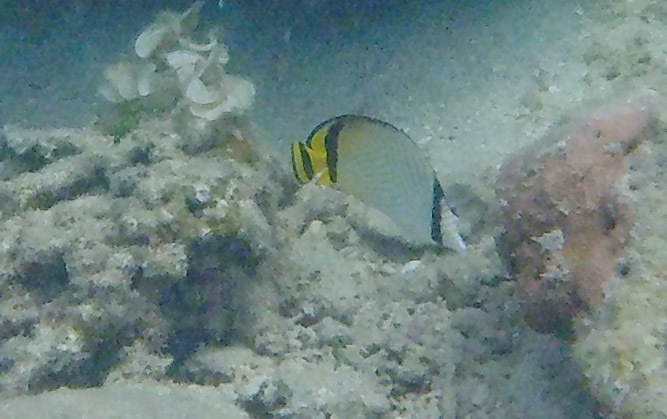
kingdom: Animalia
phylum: Chordata
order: Perciformes
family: Chaetodontidae
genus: Chaetodon
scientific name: Chaetodon vagabundus
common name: Vagabond butterflyfish
